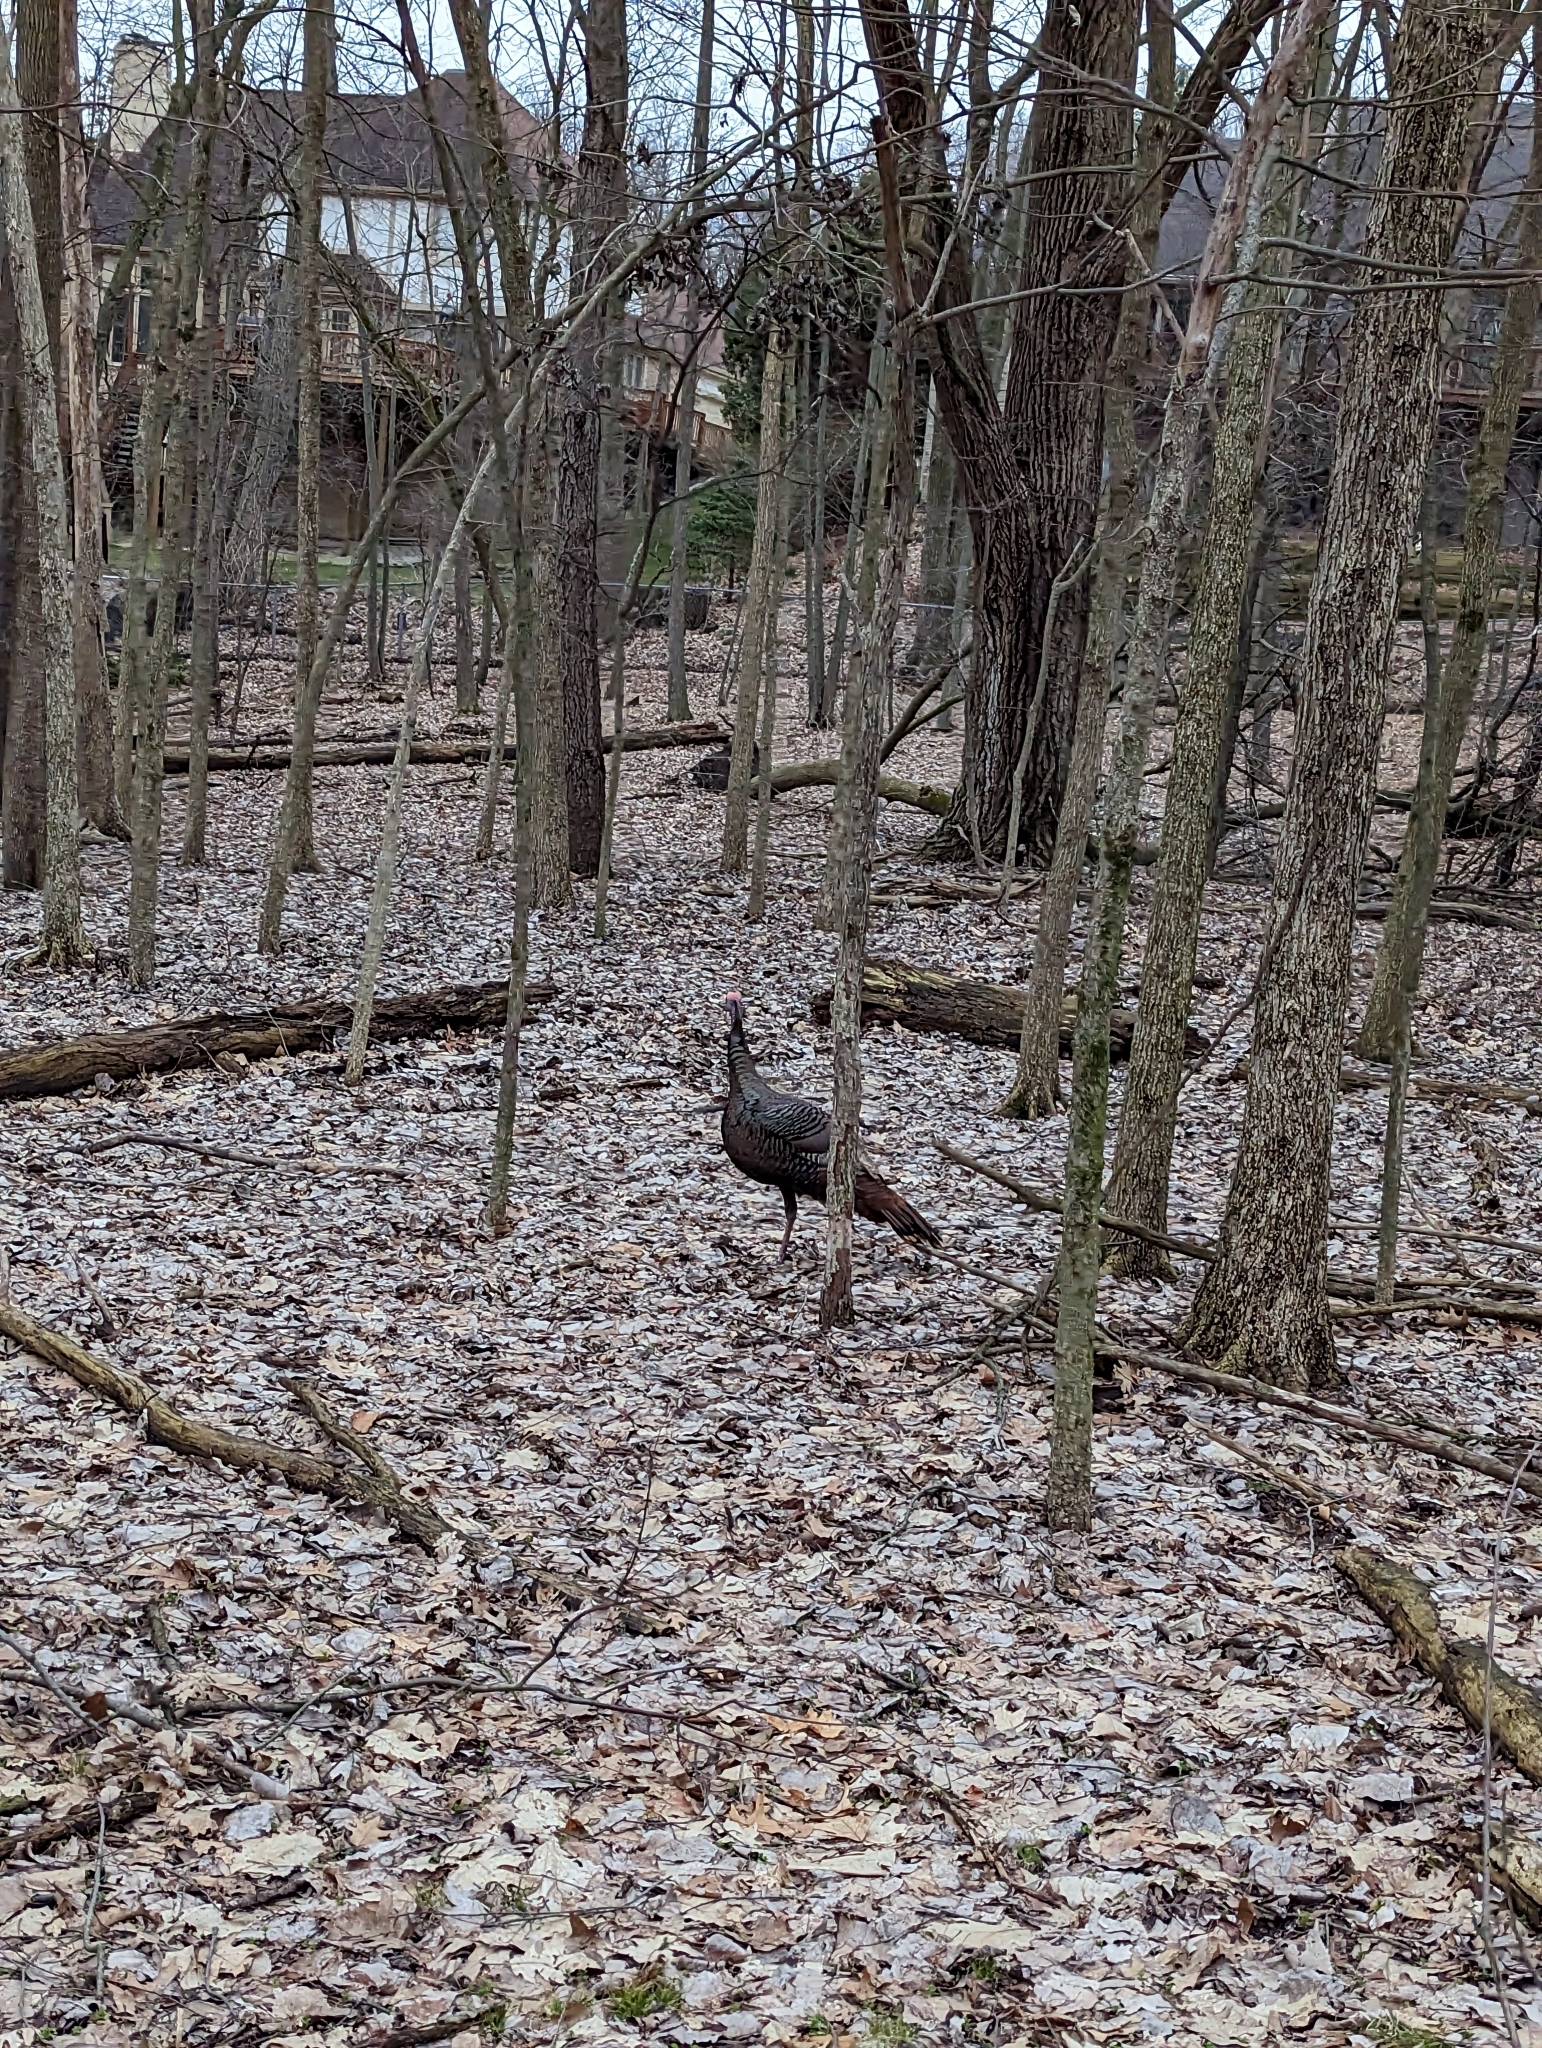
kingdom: Animalia
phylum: Chordata
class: Aves
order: Galliformes
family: Phasianidae
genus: Meleagris
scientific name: Meleagris gallopavo
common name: Wild turkey
